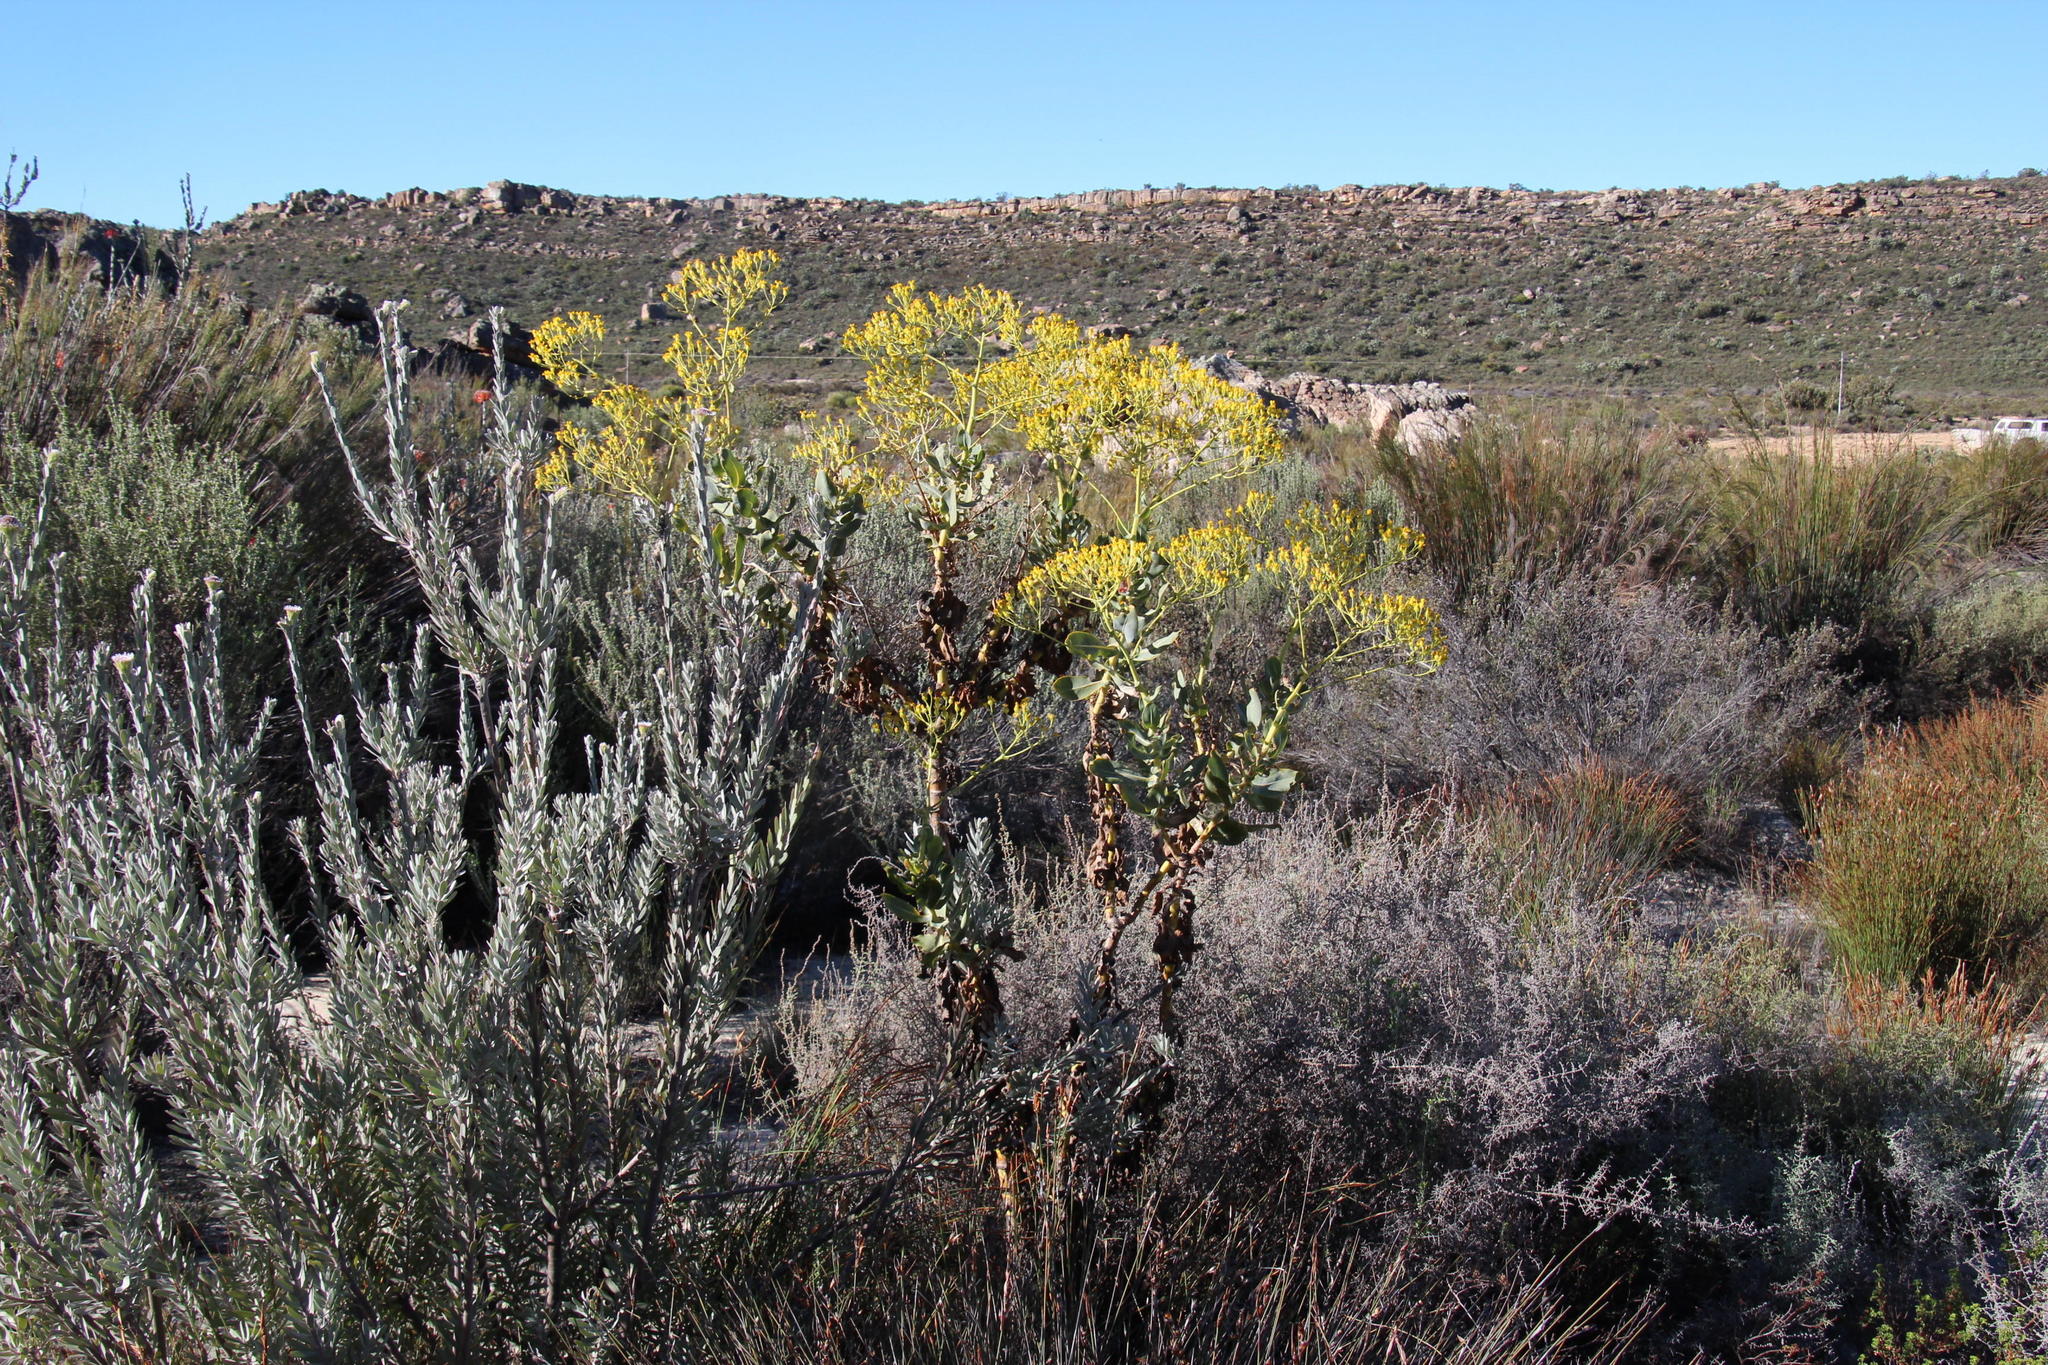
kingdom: Plantae
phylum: Tracheophyta
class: Magnoliopsida
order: Asterales
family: Asteraceae
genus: Othonna
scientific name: Othonna parviflora
